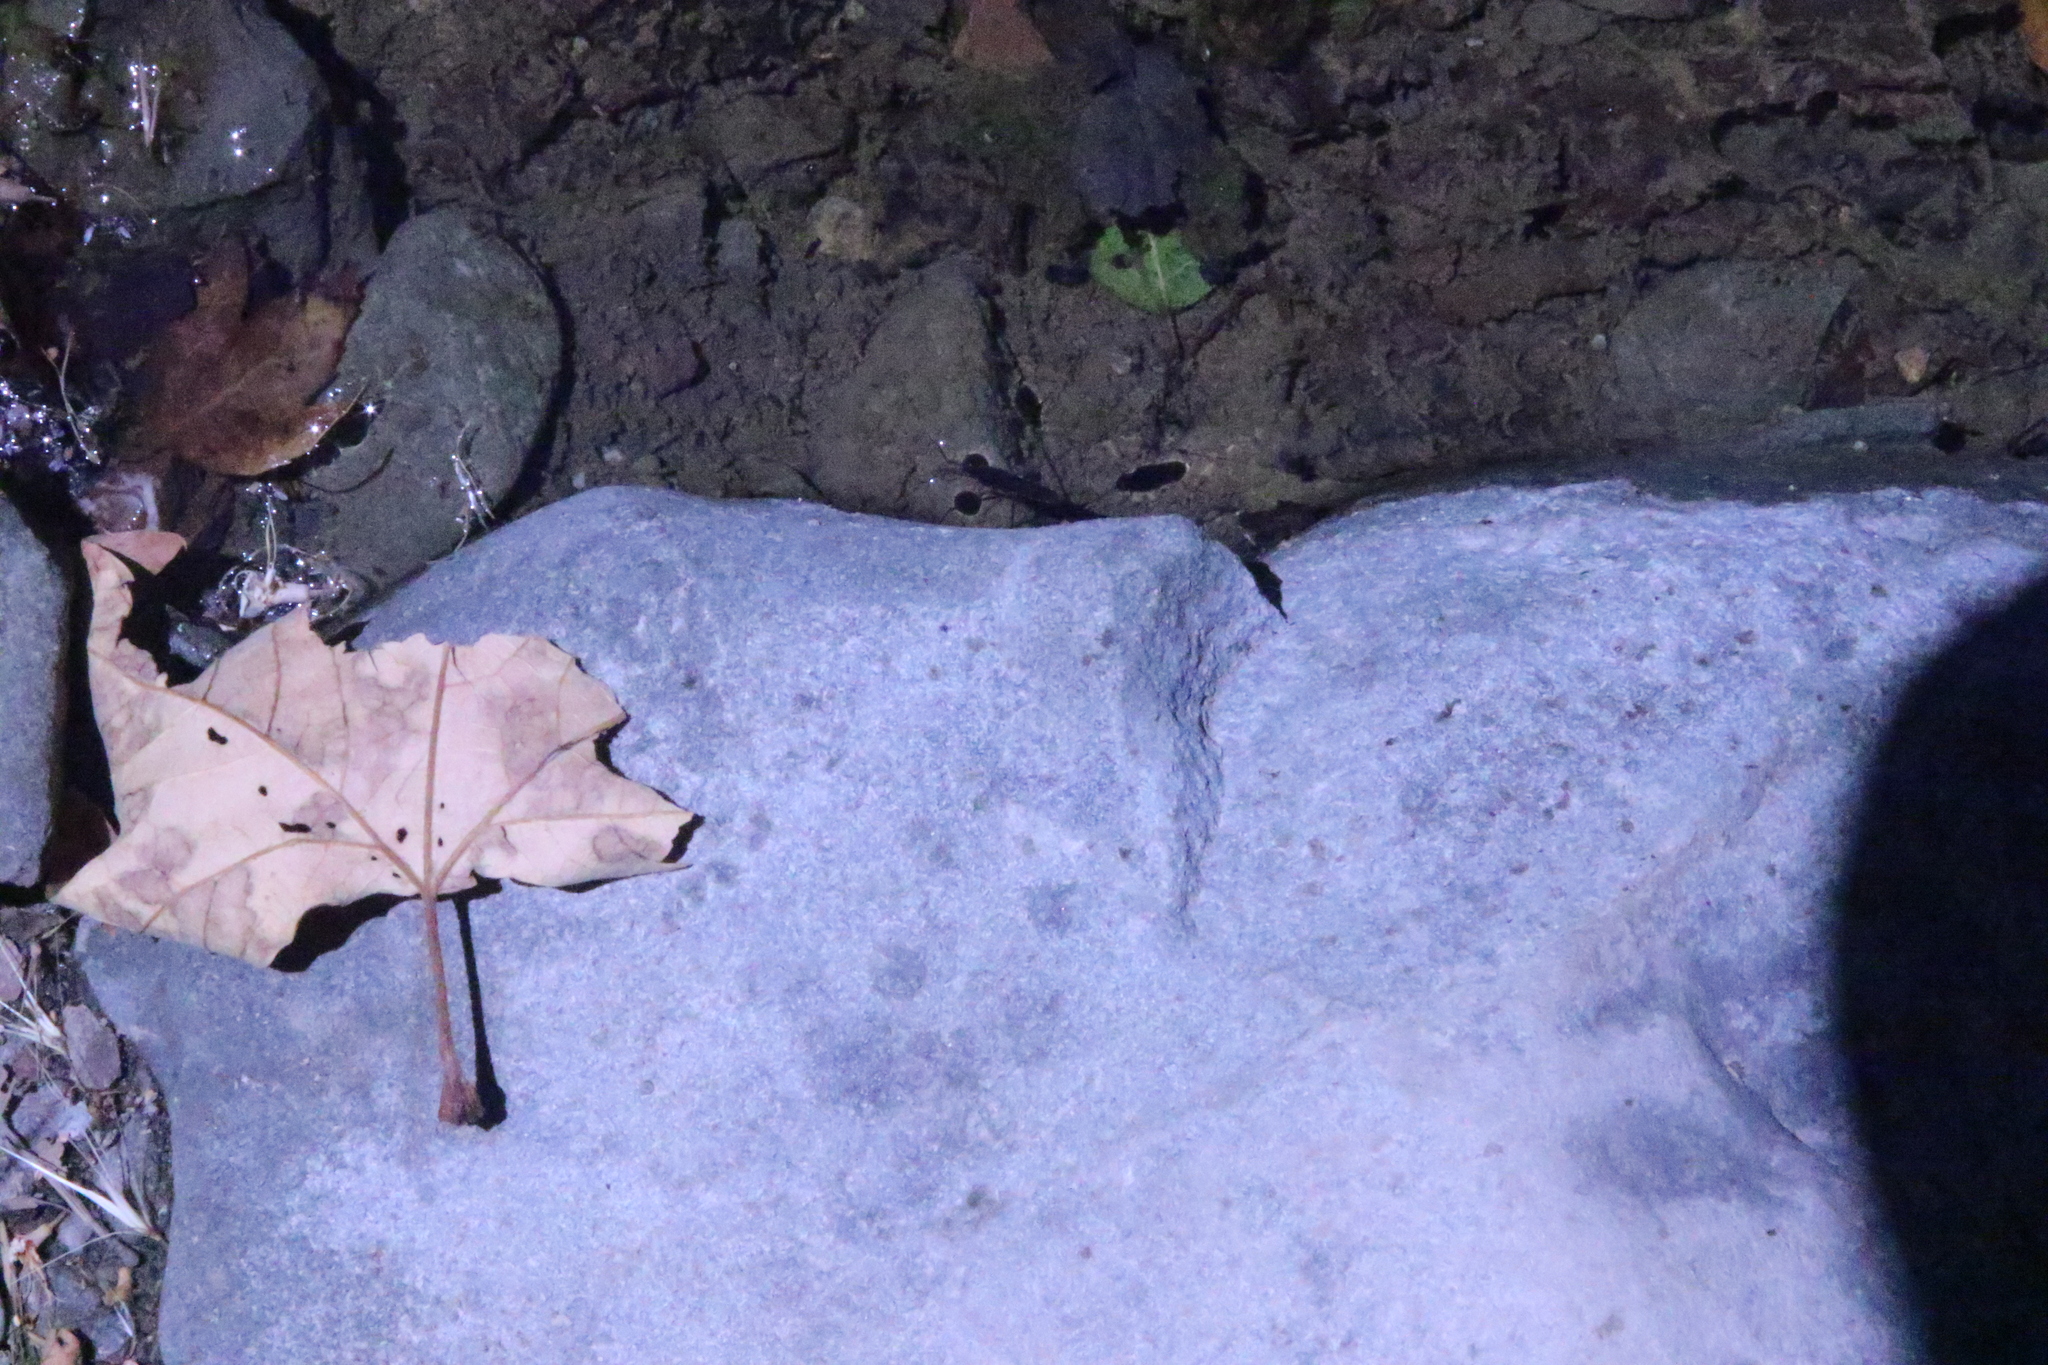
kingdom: Animalia
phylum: Arthropoda
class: Insecta
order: Hemiptera
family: Gerridae
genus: Aquarius
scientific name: Aquarius remigis
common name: Common water strider
